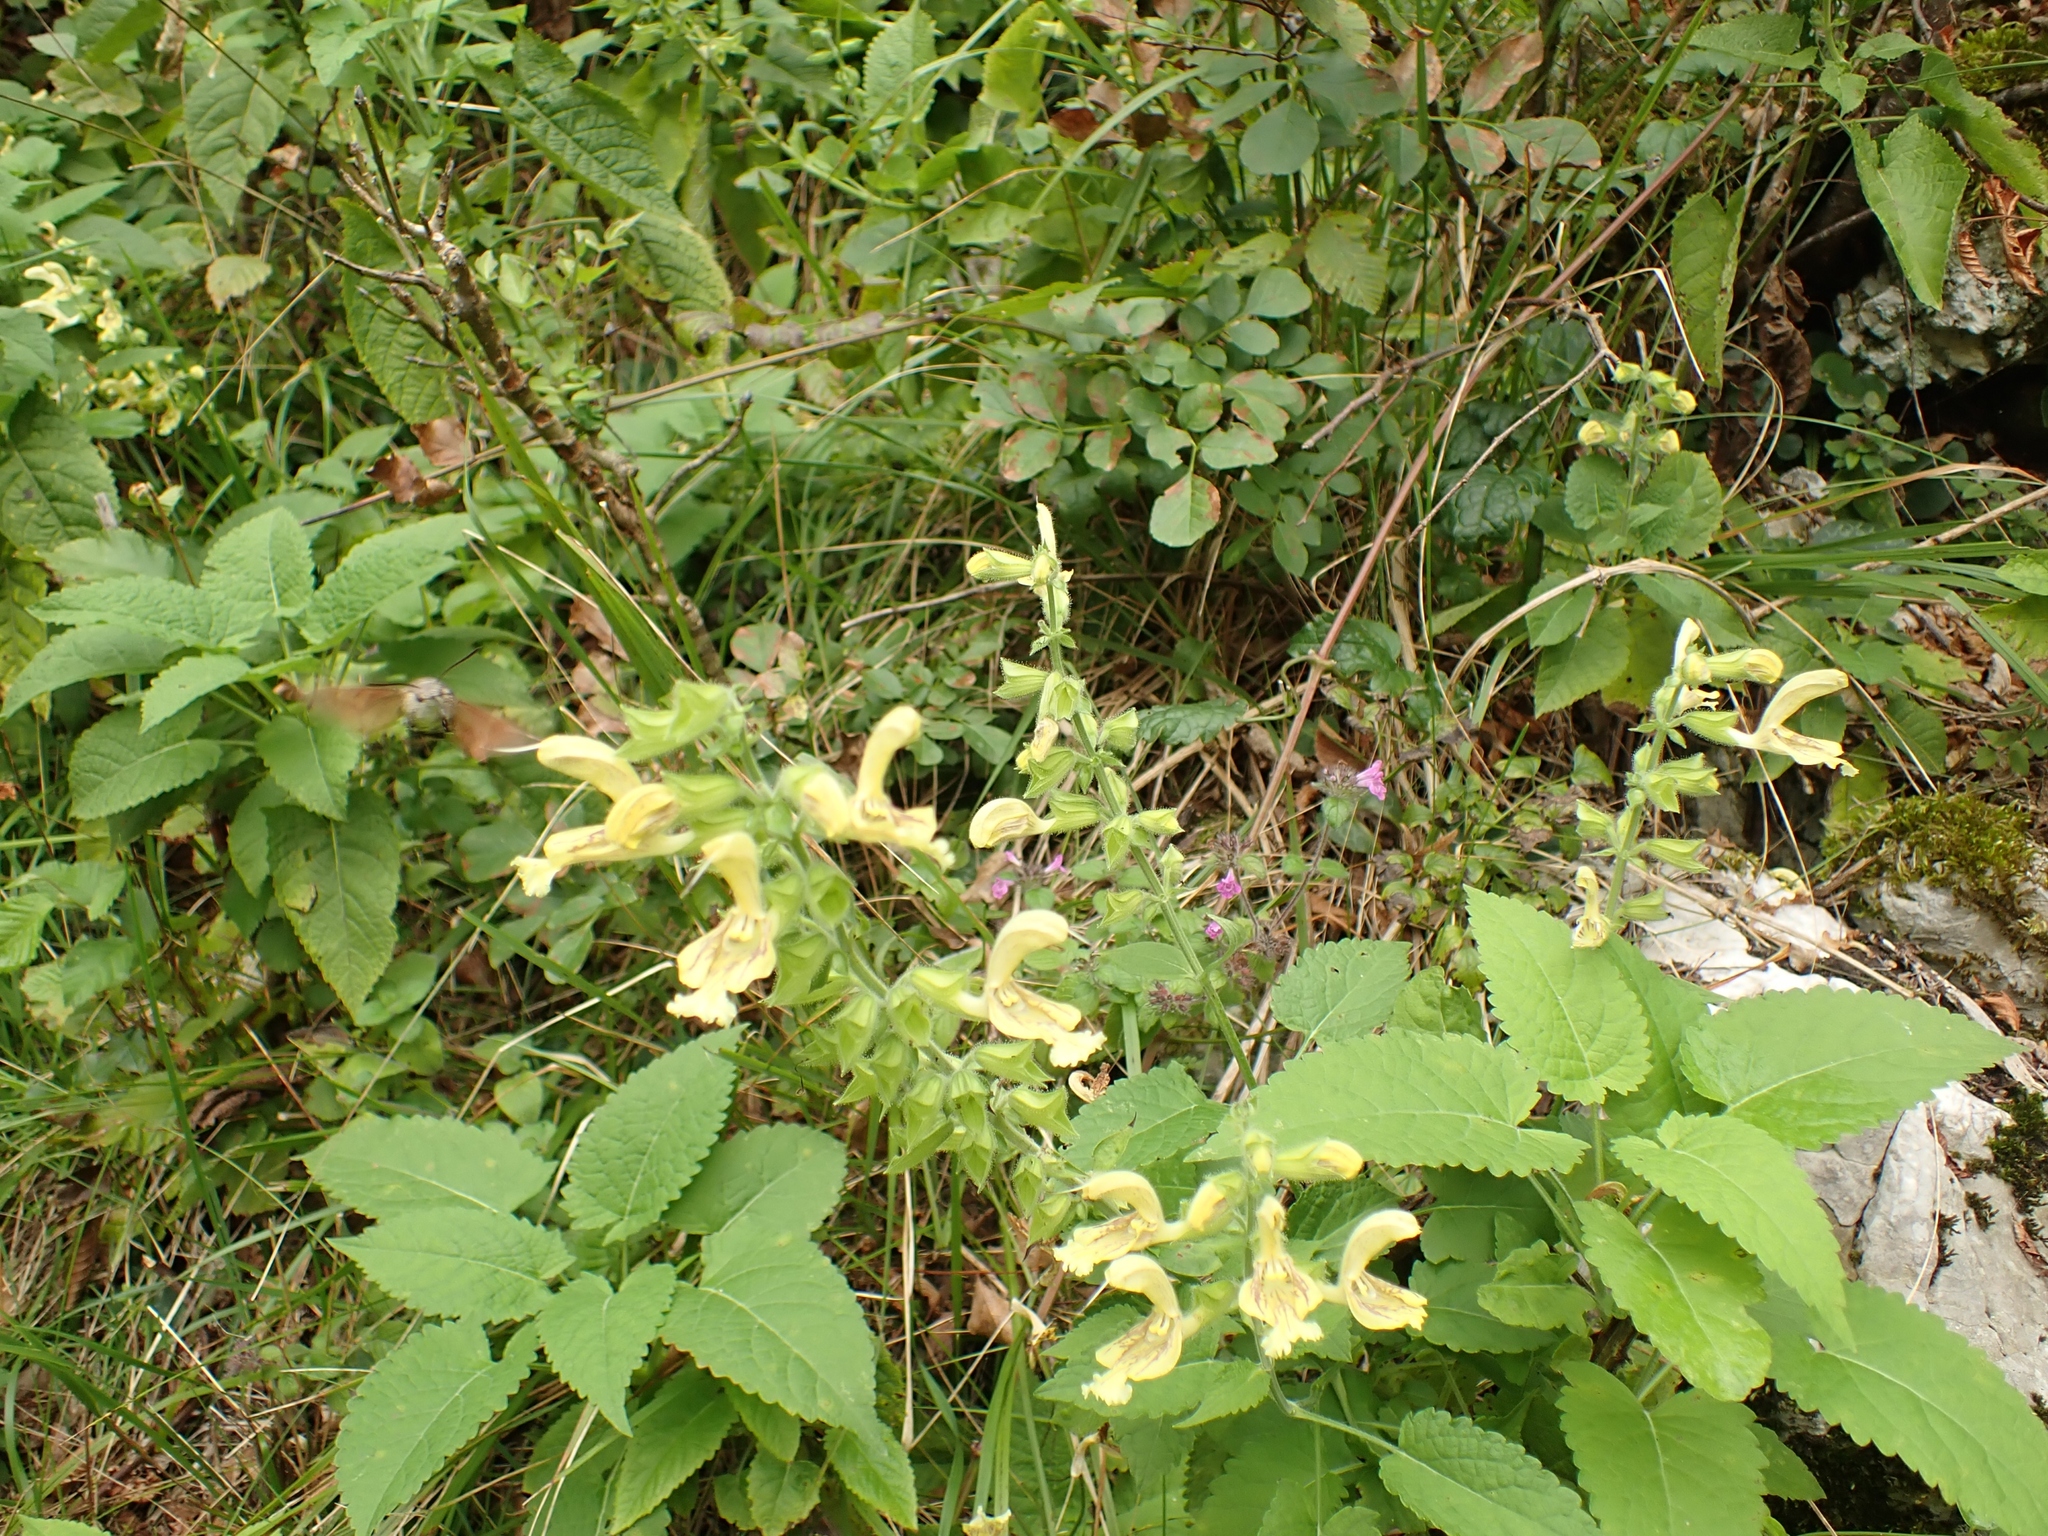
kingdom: Plantae
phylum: Tracheophyta
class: Magnoliopsida
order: Lamiales
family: Lamiaceae
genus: Salvia
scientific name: Salvia glutinosa
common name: Sticky clary
